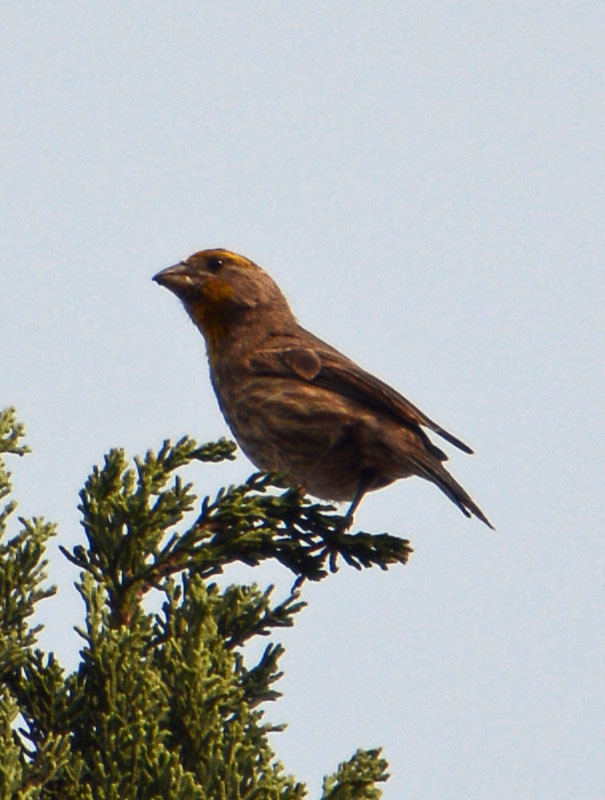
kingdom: Animalia
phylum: Chordata
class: Aves
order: Passeriformes
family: Fringillidae
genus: Haemorhous
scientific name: Haemorhous mexicanus
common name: House finch
